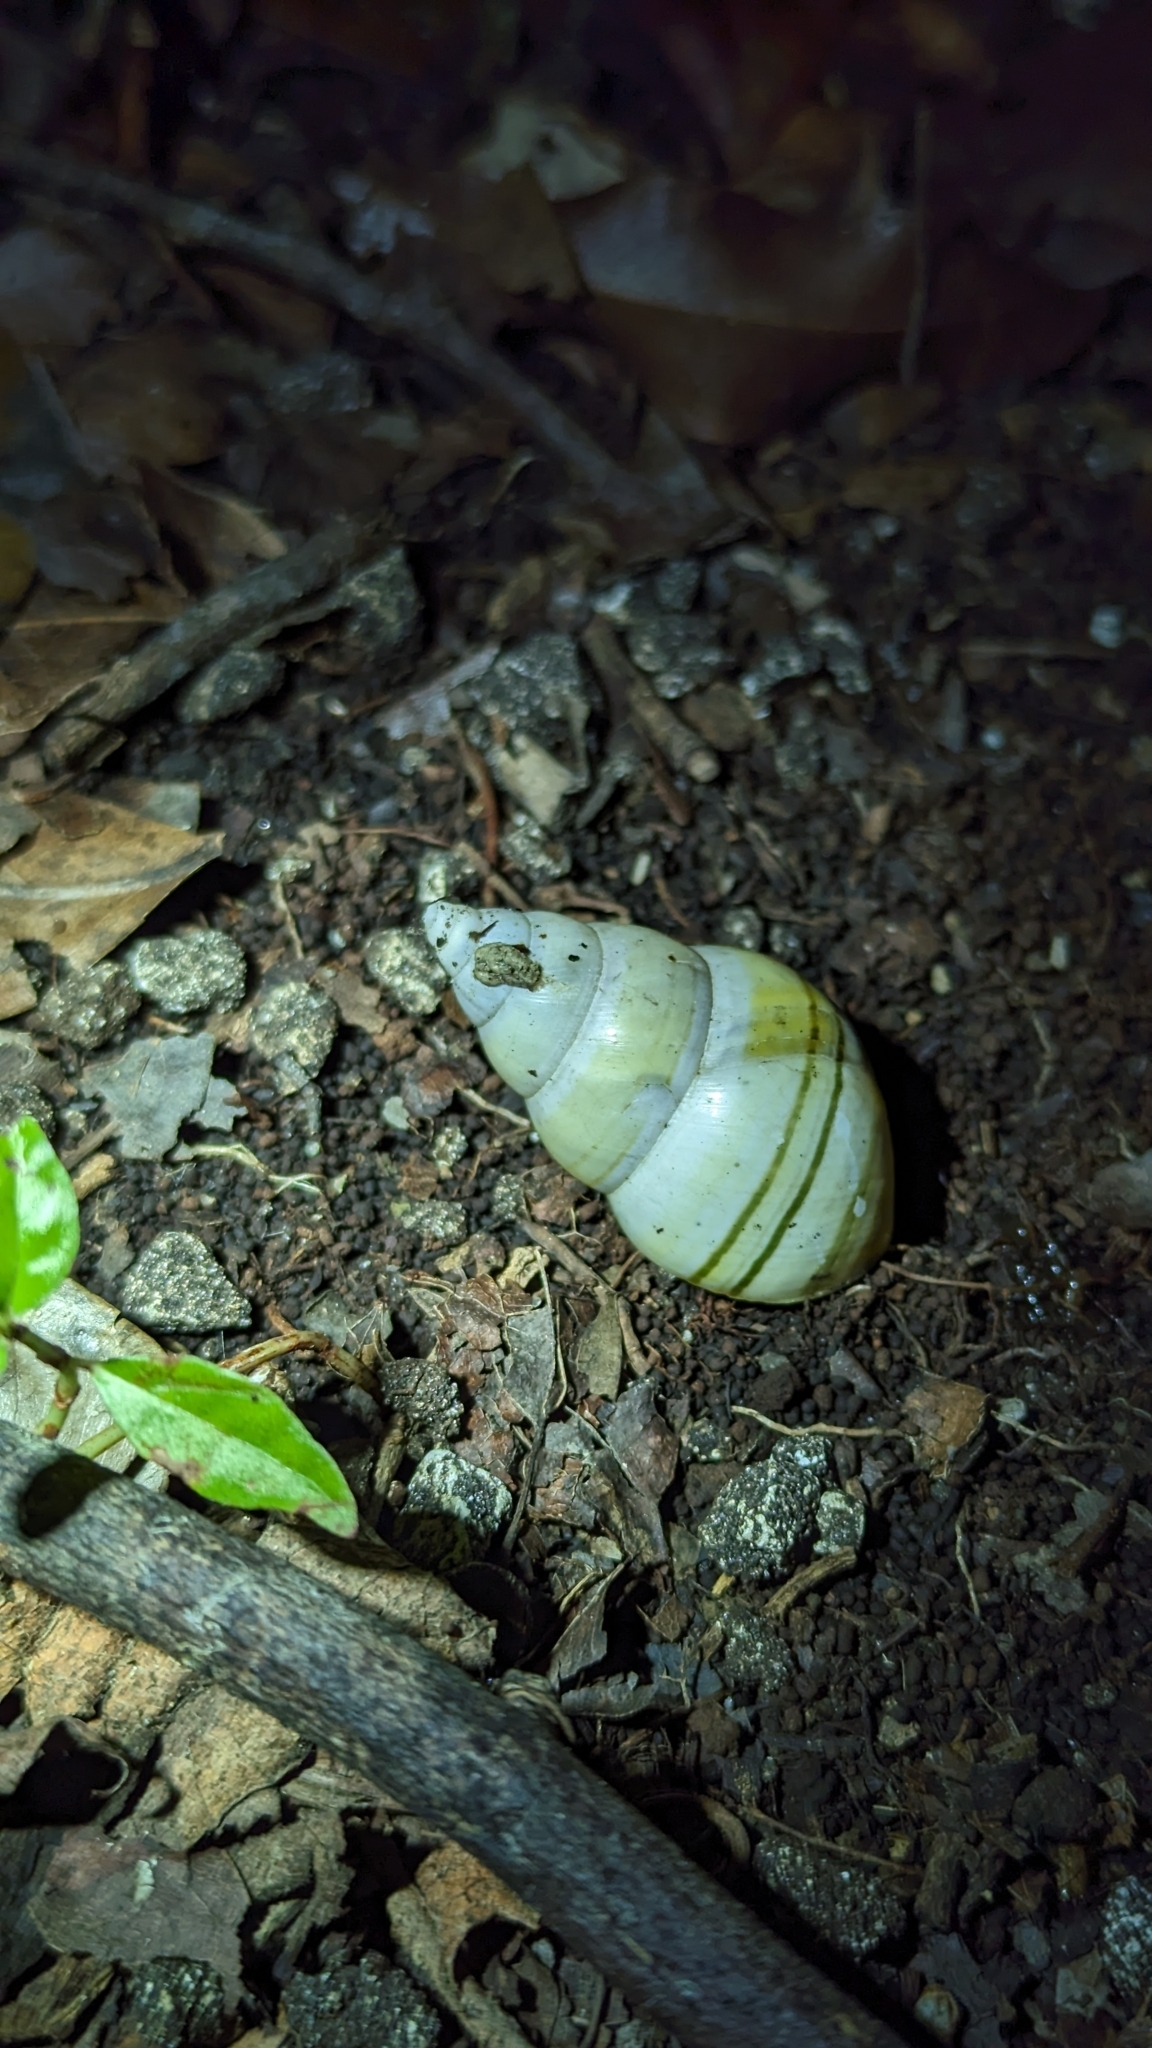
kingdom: Animalia
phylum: Mollusca
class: Gastropoda
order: Stylommatophora
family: Orthalicidae
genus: Liguus
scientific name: Liguus fasciatus
